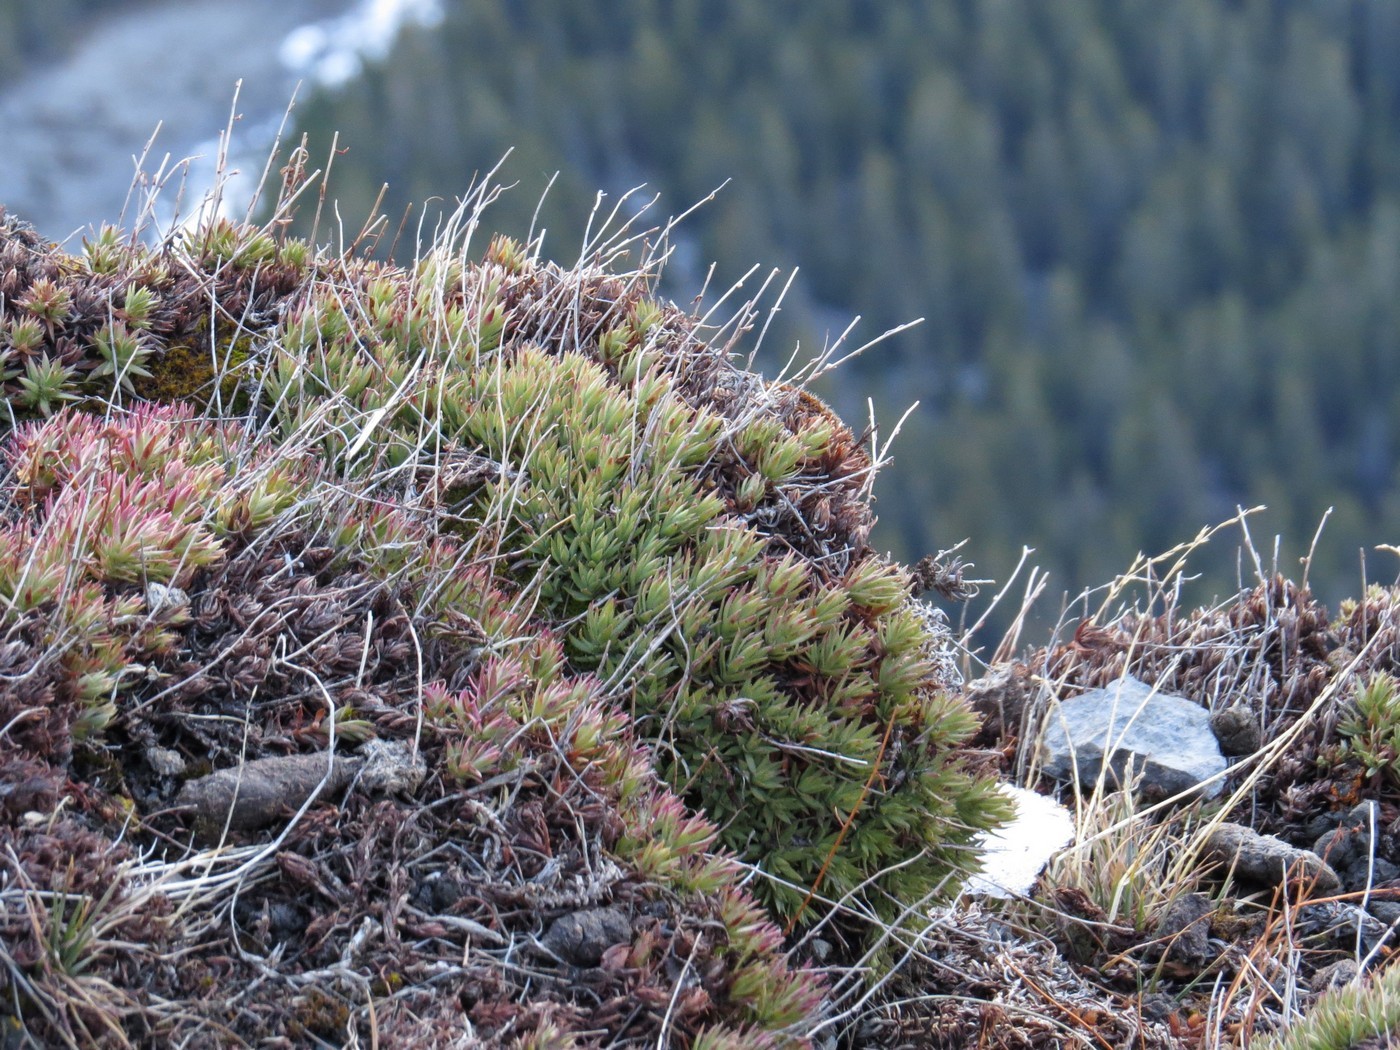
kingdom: Plantae
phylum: Tracheophyta
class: Magnoliopsida
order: Saxifragales
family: Saxifragaceae
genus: Saxifraga
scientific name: Saxifraga bronchialis
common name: Matted saxifrage
